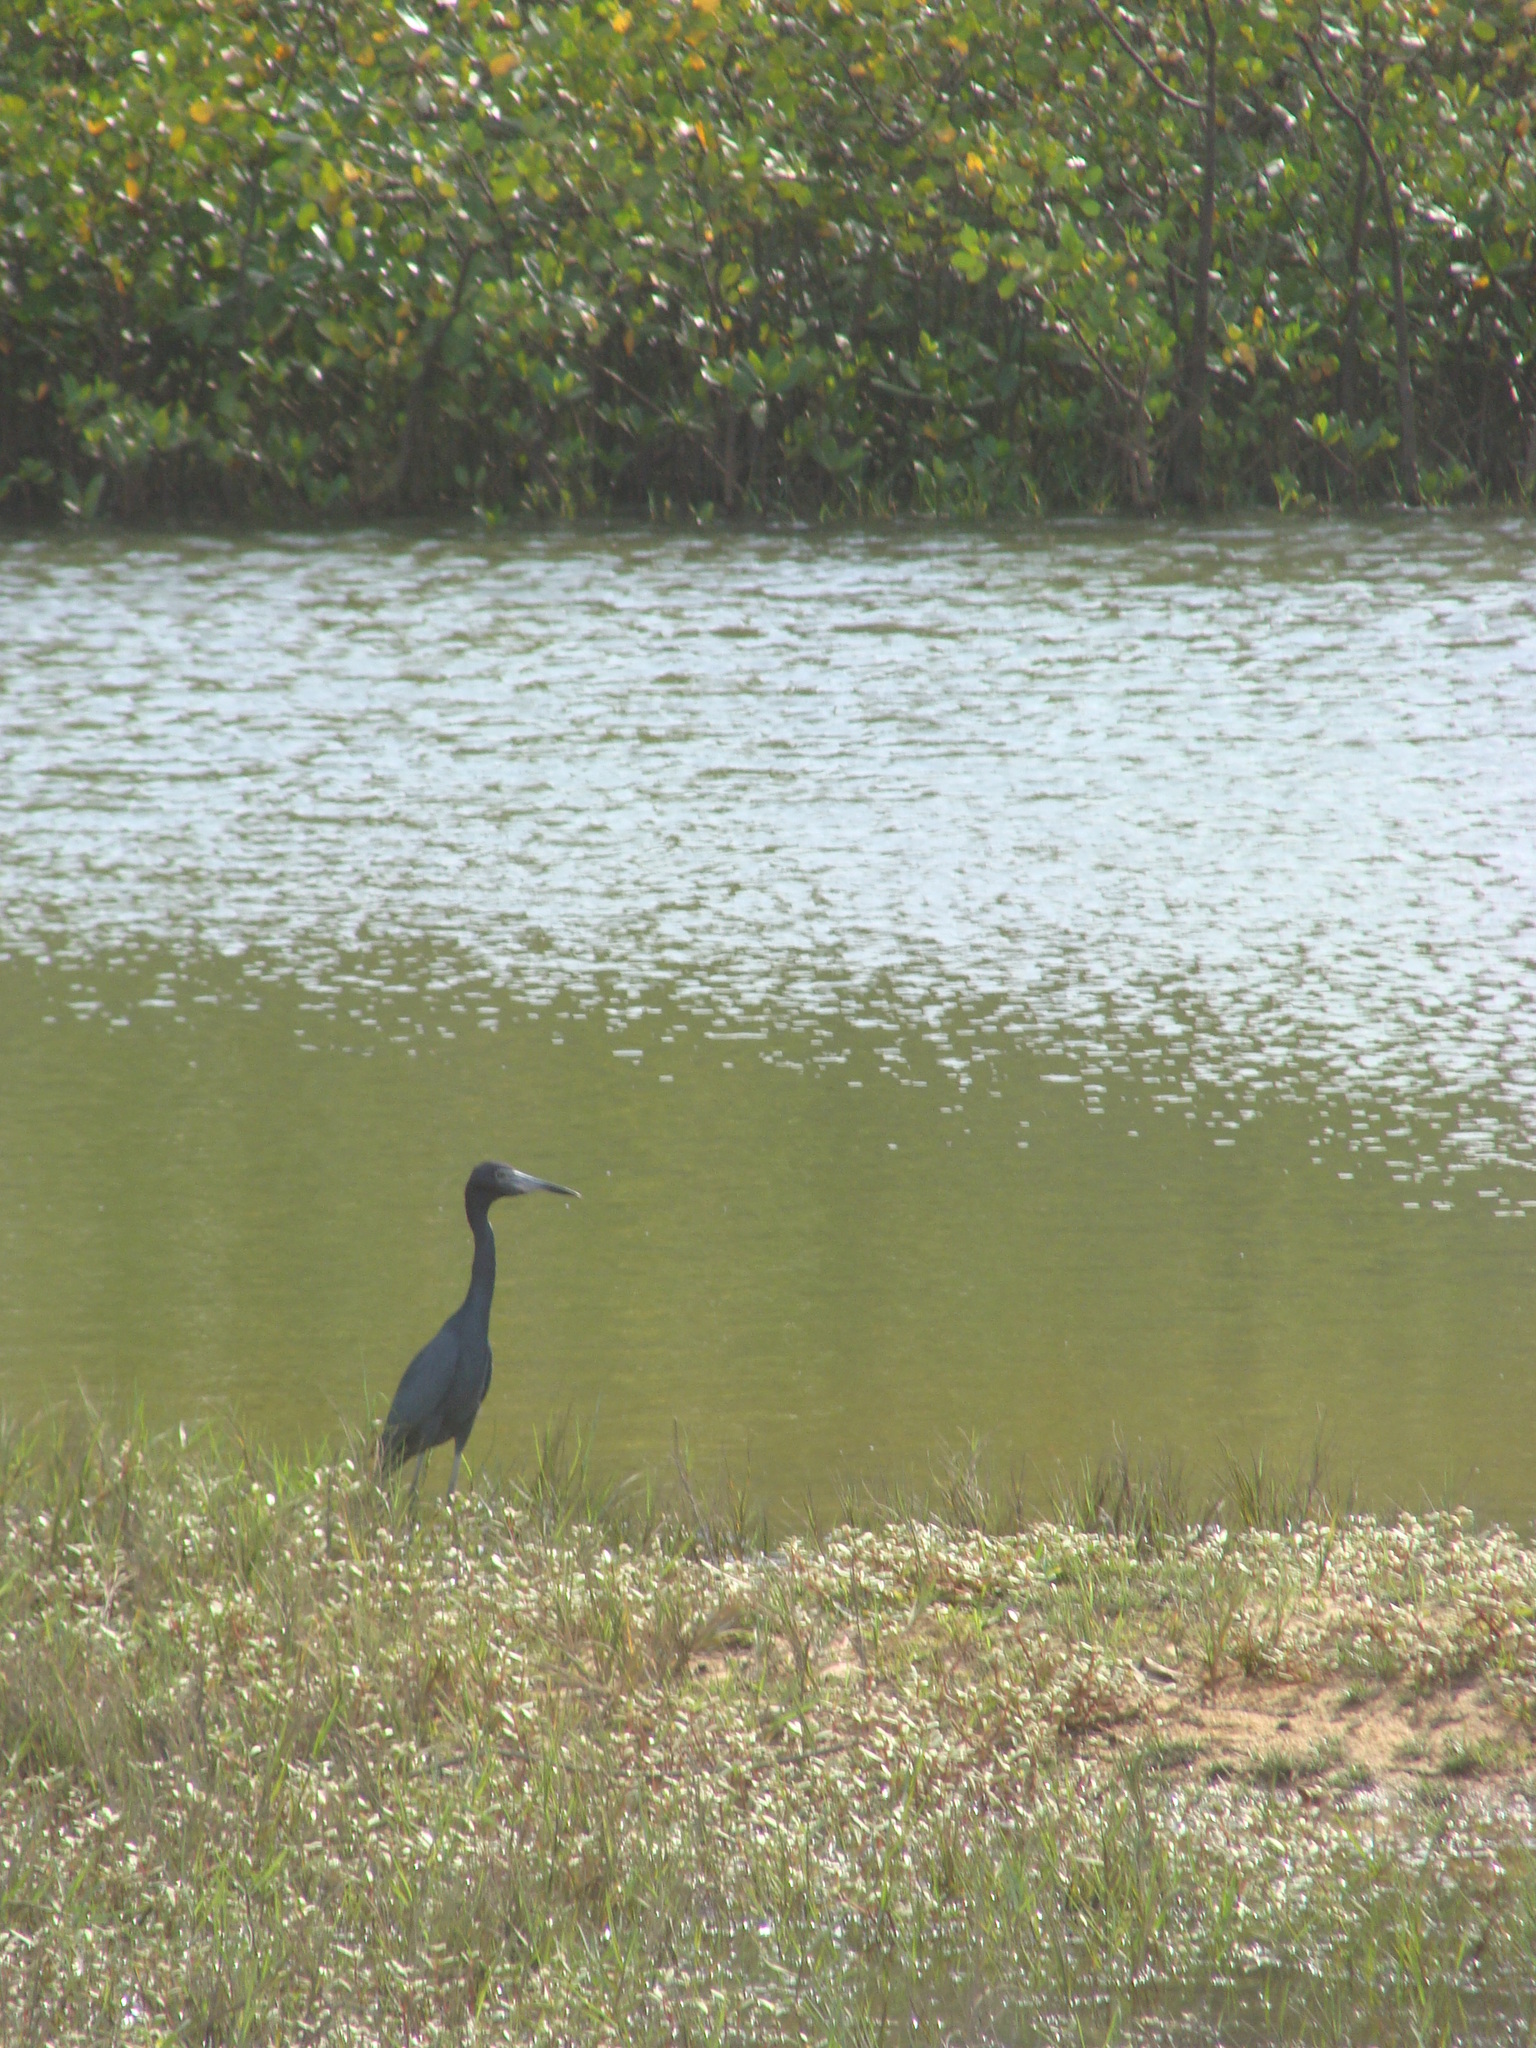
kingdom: Animalia
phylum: Chordata
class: Aves
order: Pelecaniformes
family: Ardeidae
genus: Egretta
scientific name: Egretta caerulea
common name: Little blue heron
